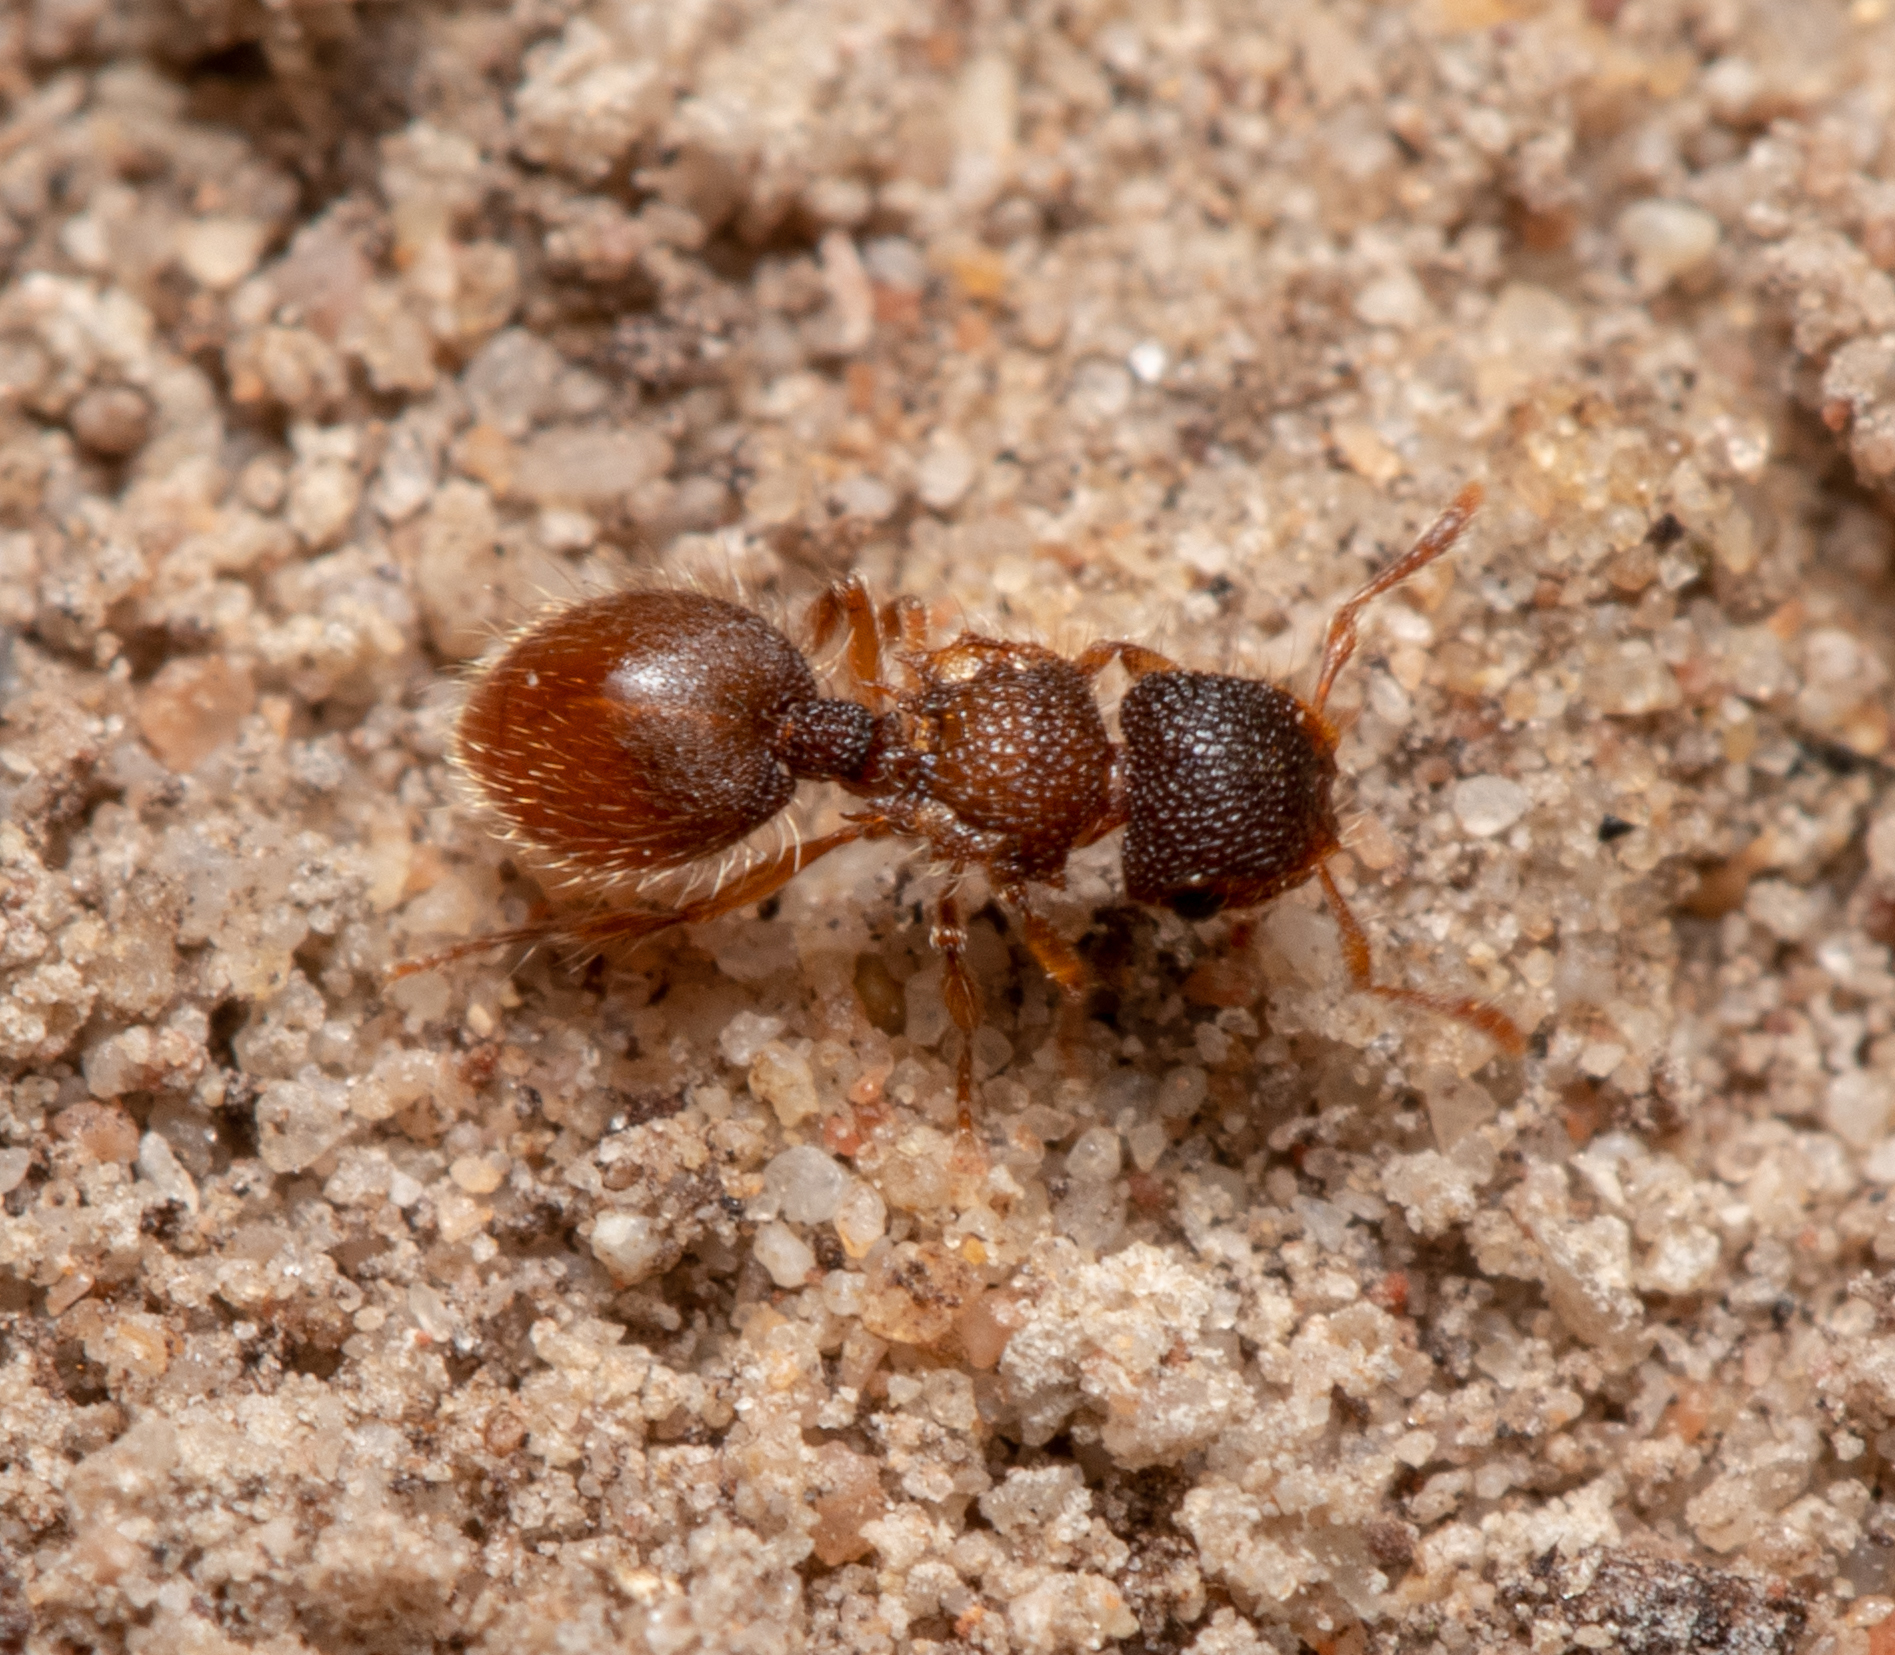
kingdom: Animalia
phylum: Arthropoda
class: Insecta
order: Hymenoptera
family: Formicidae
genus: Meranoplus
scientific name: Meranoplus froggatti
